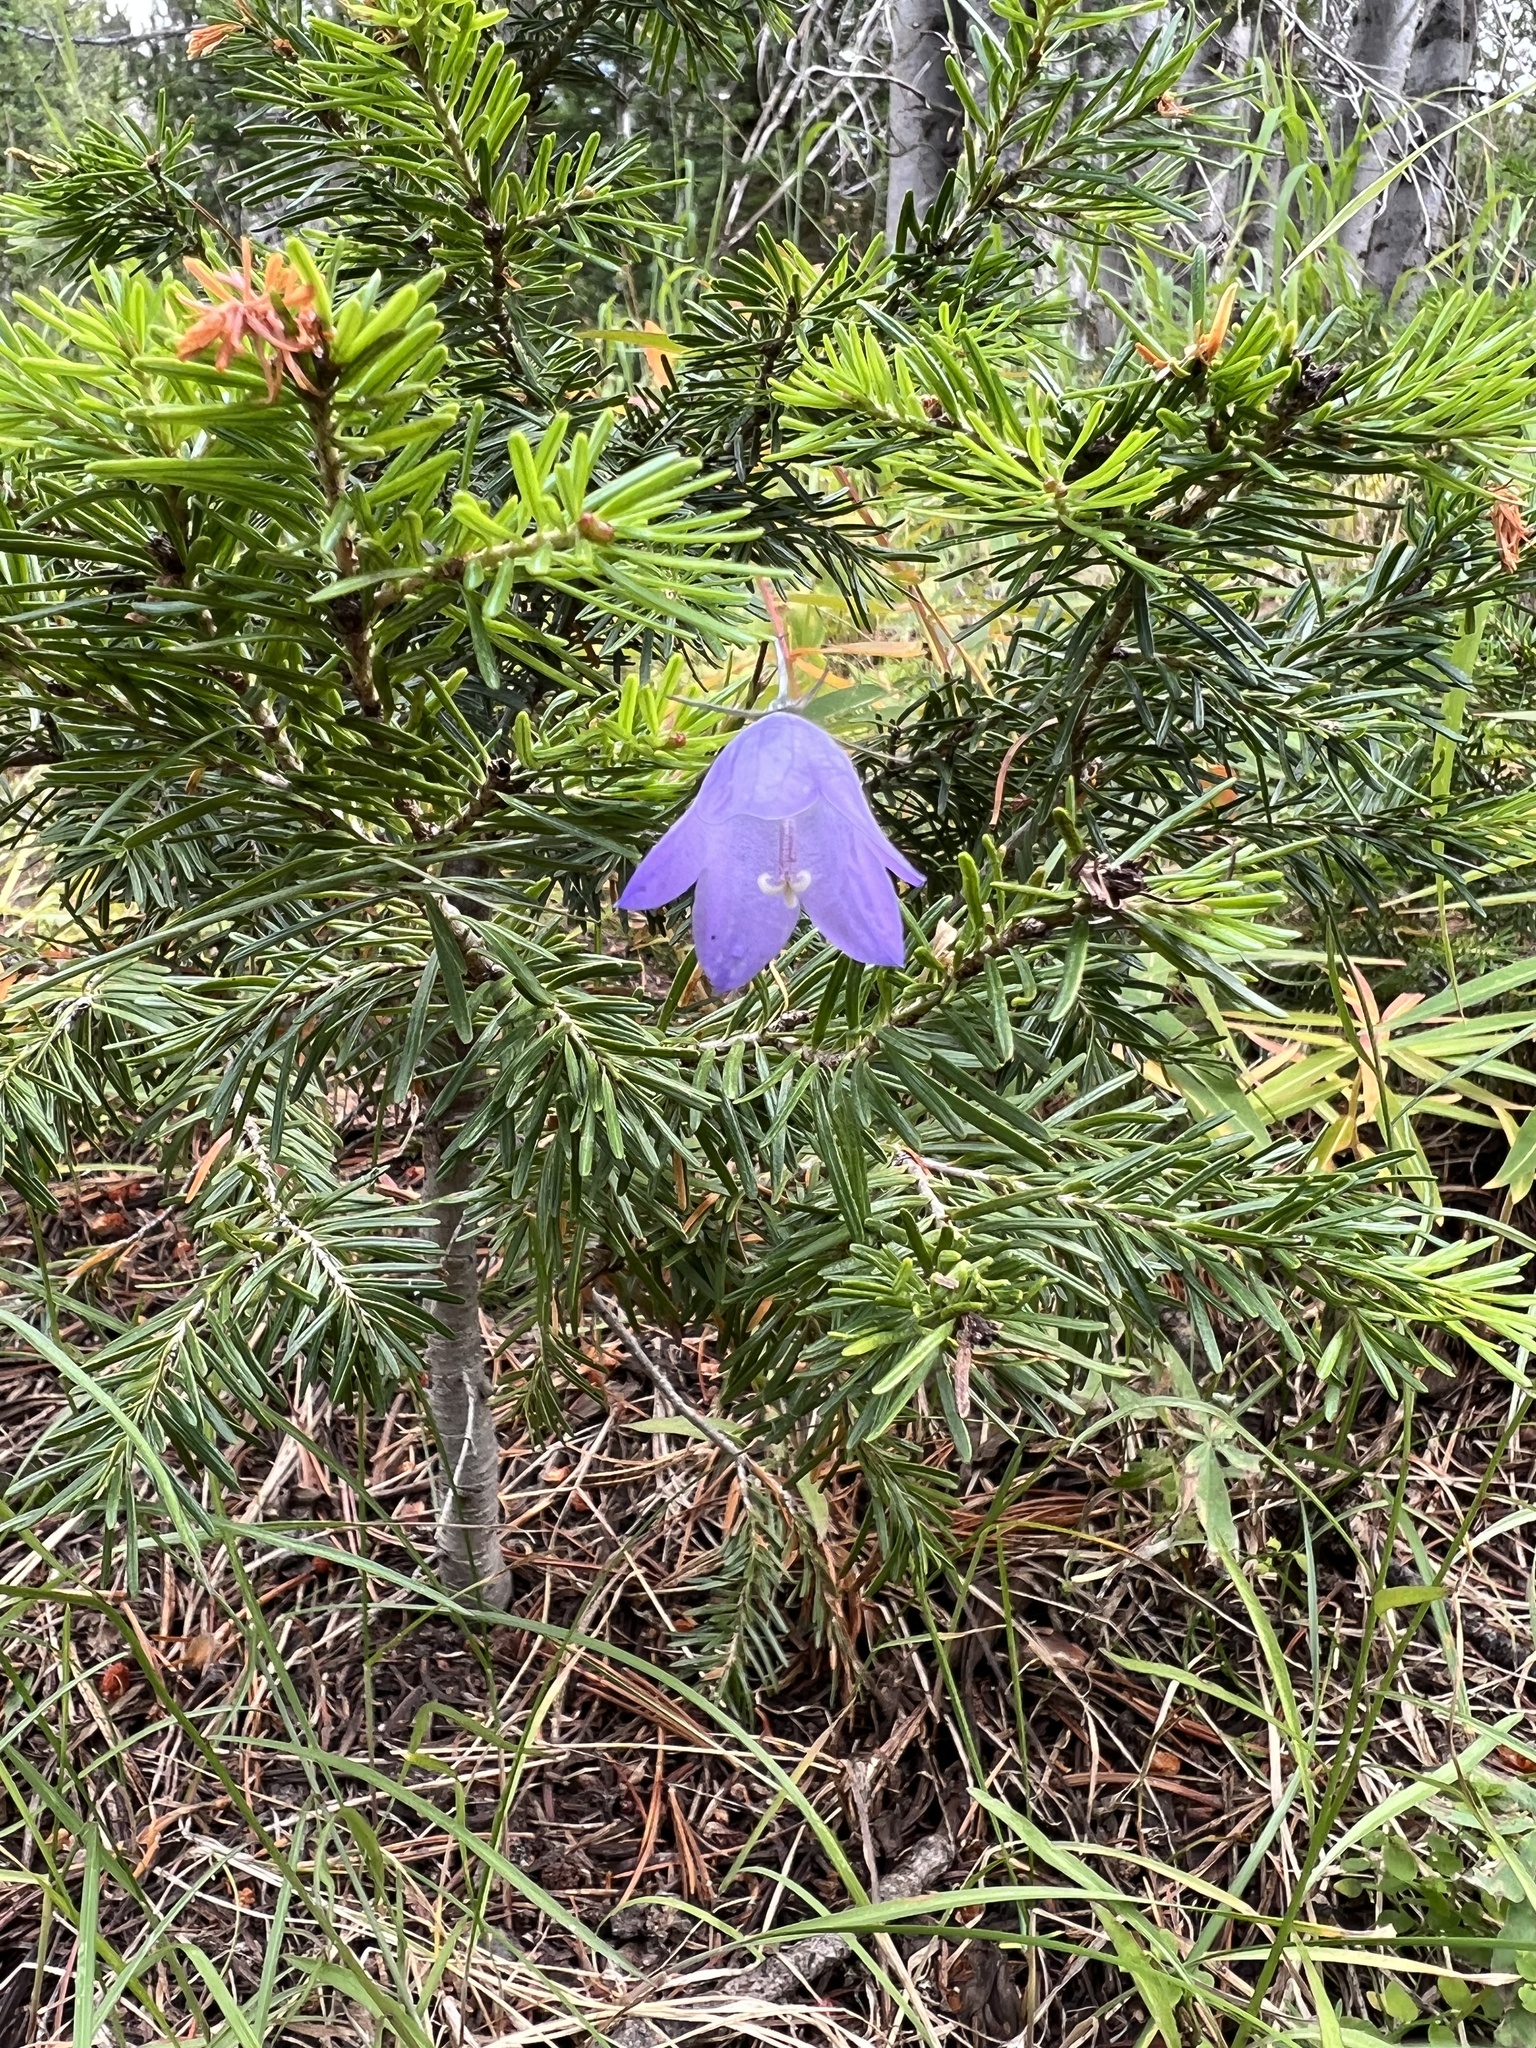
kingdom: Plantae
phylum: Tracheophyta
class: Magnoliopsida
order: Asterales
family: Campanulaceae
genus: Campanula
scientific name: Campanula
